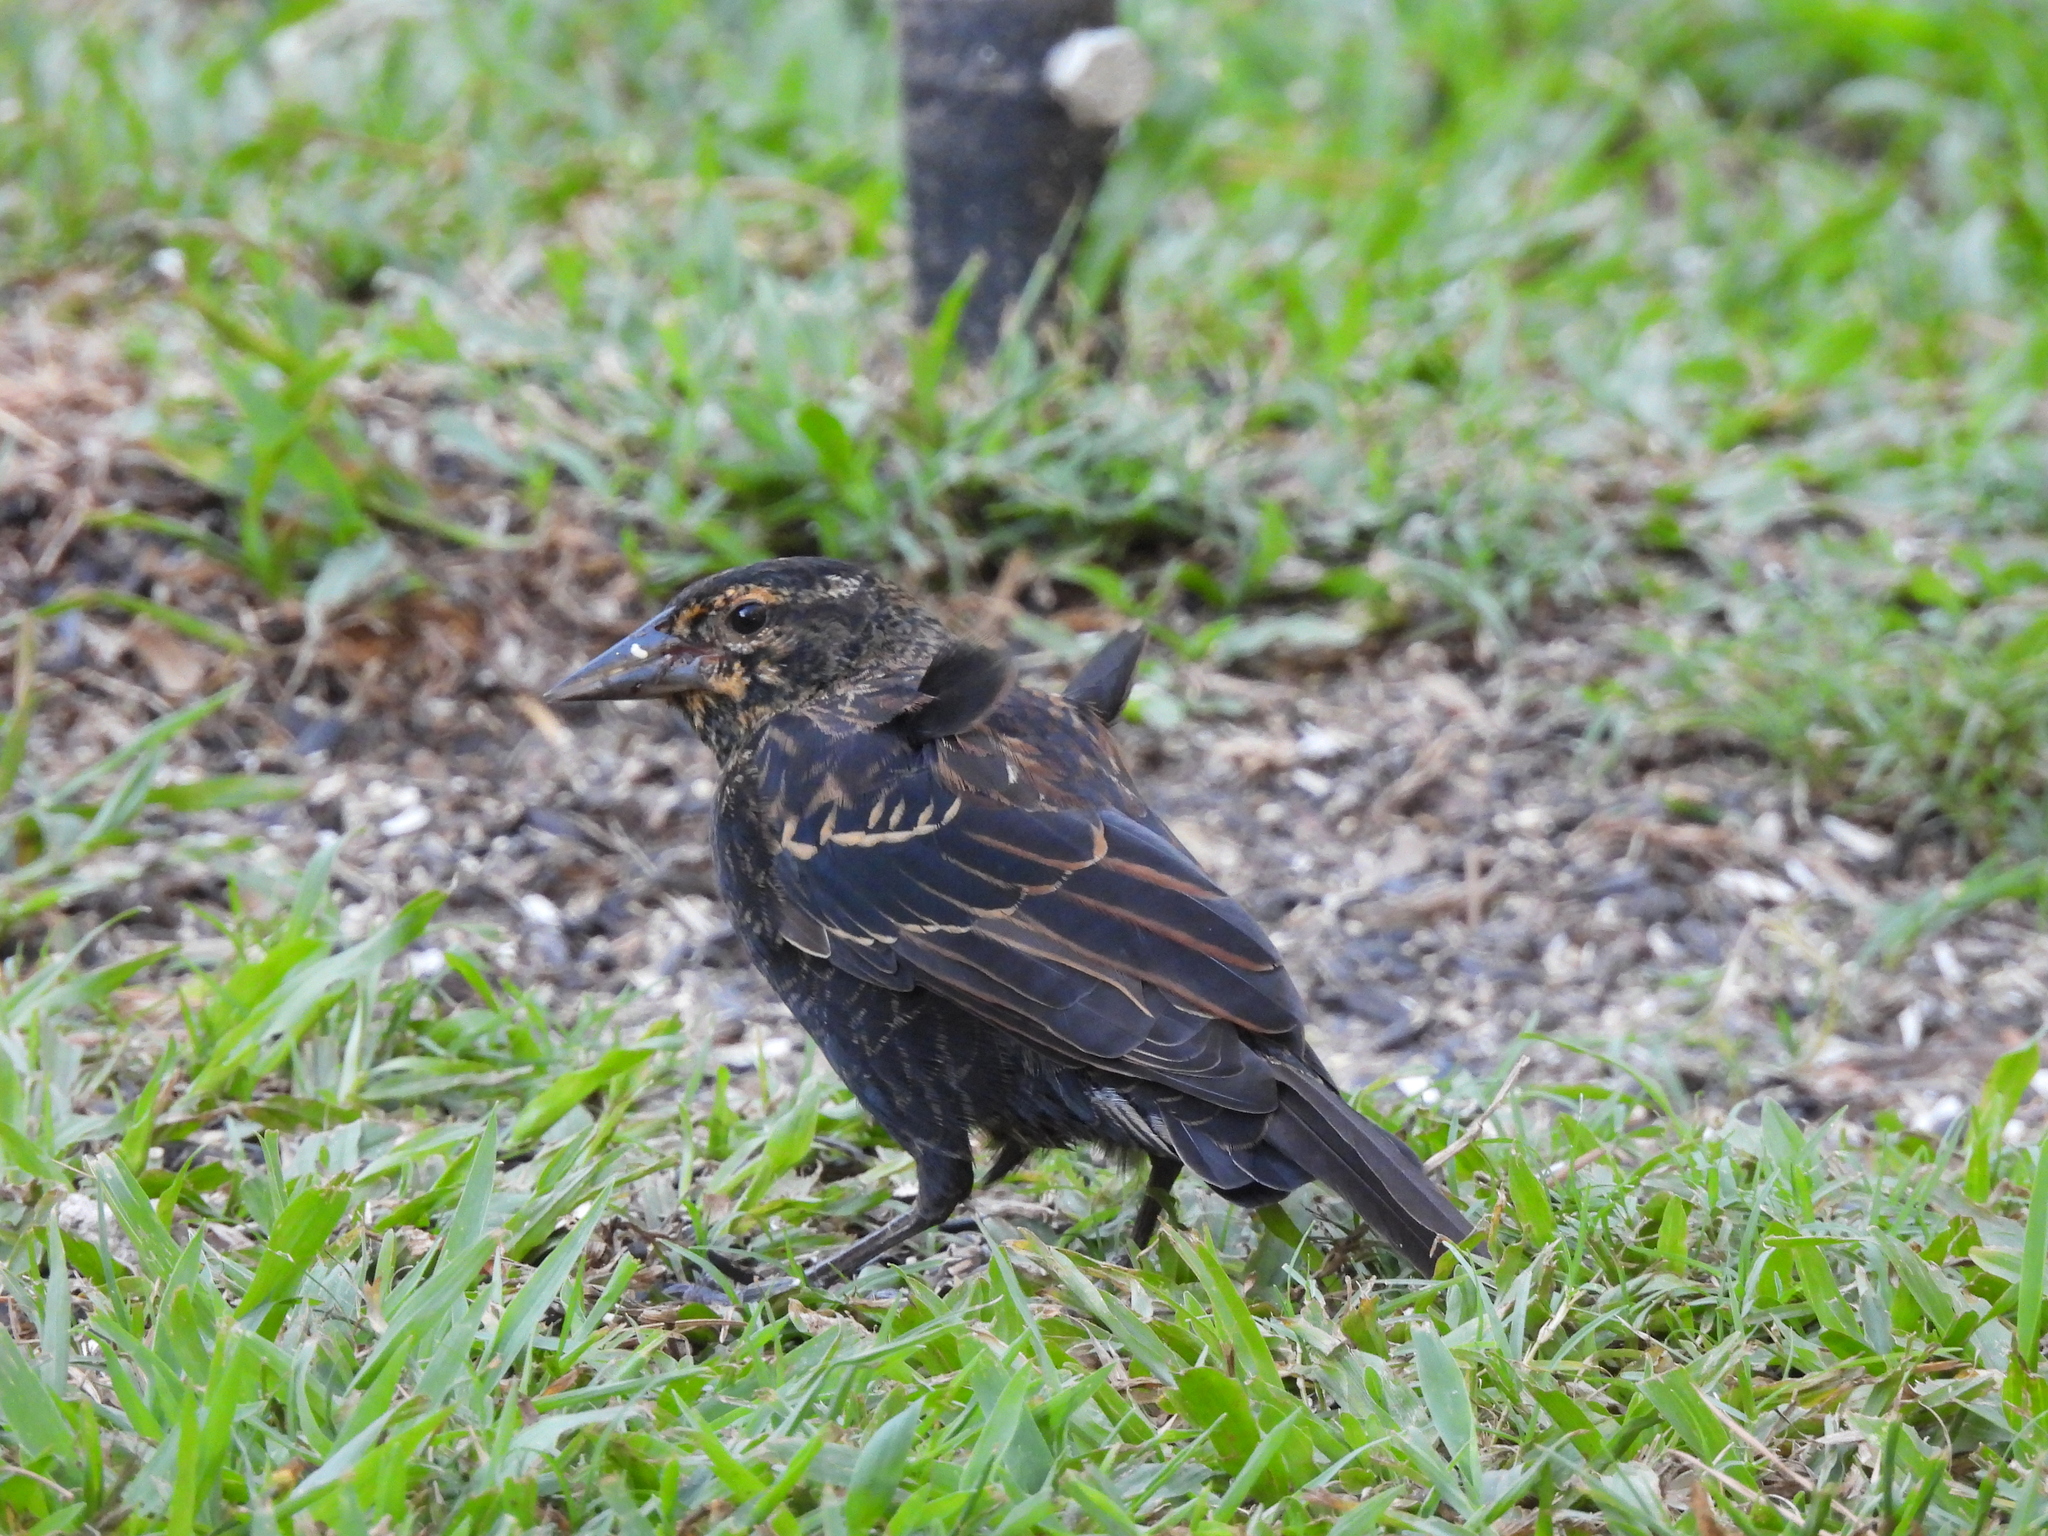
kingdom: Animalia
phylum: Chordata
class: Aves
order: Passeriformes
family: Icteridae
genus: Agelaius
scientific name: Agelaius phoeniceus
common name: Red-winged blackbird
